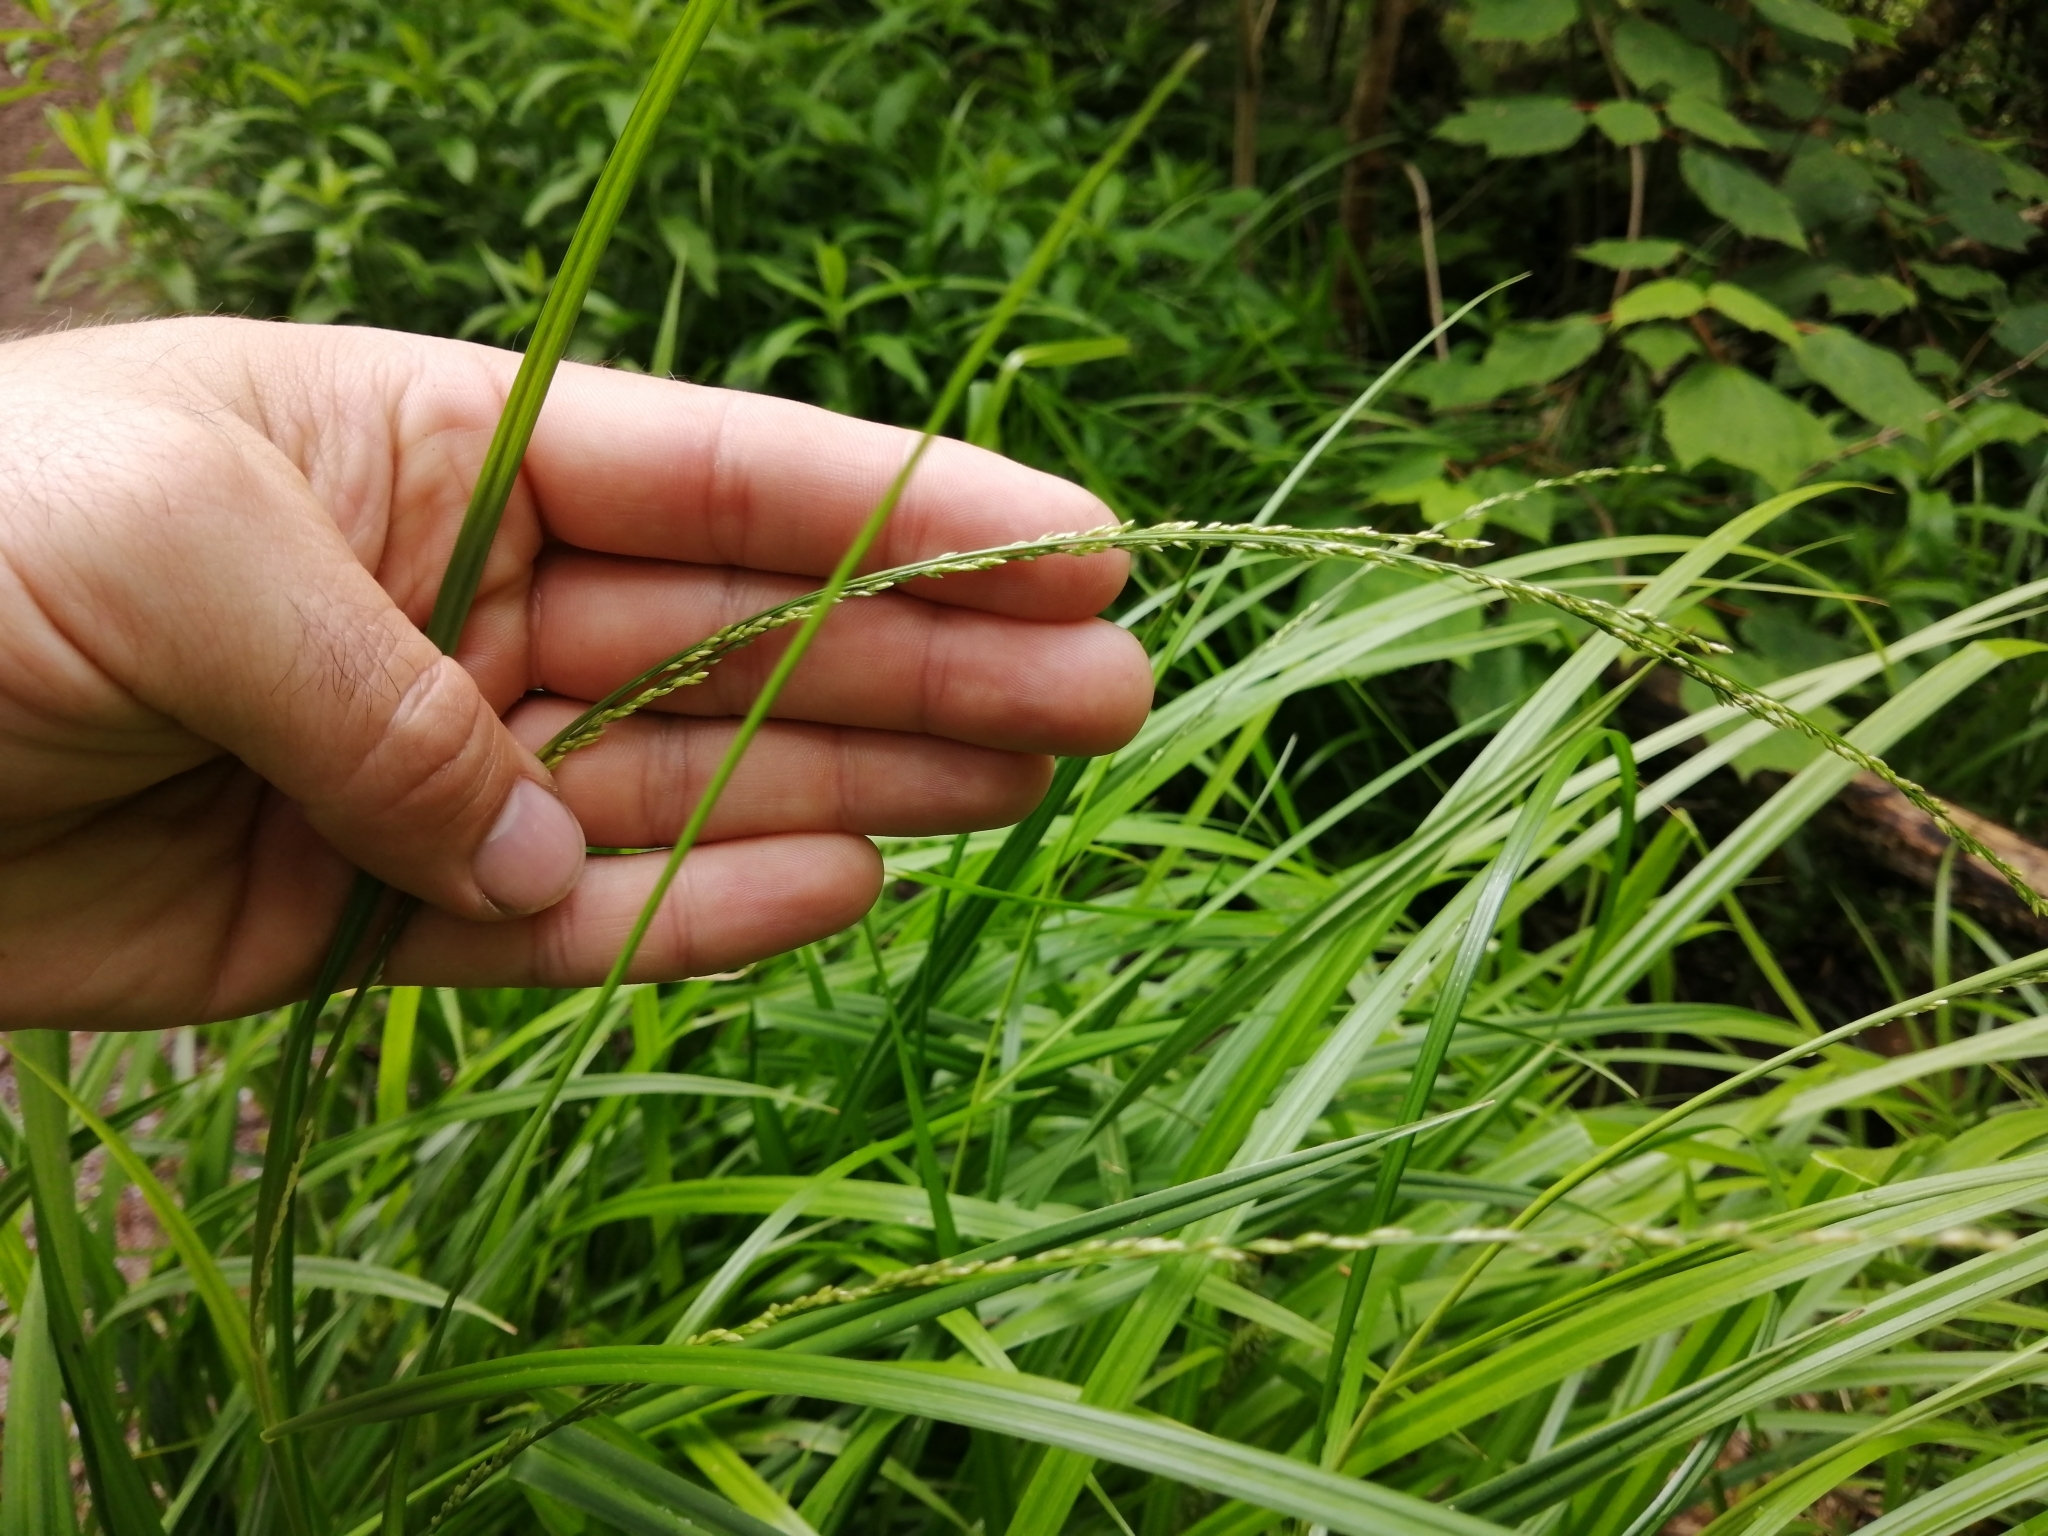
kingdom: Plantae
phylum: Tracheophyta
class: Liliopsida
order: Poales
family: Poaceae
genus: Glyceria
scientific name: Glyceria melicaria
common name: Long mannagrass
